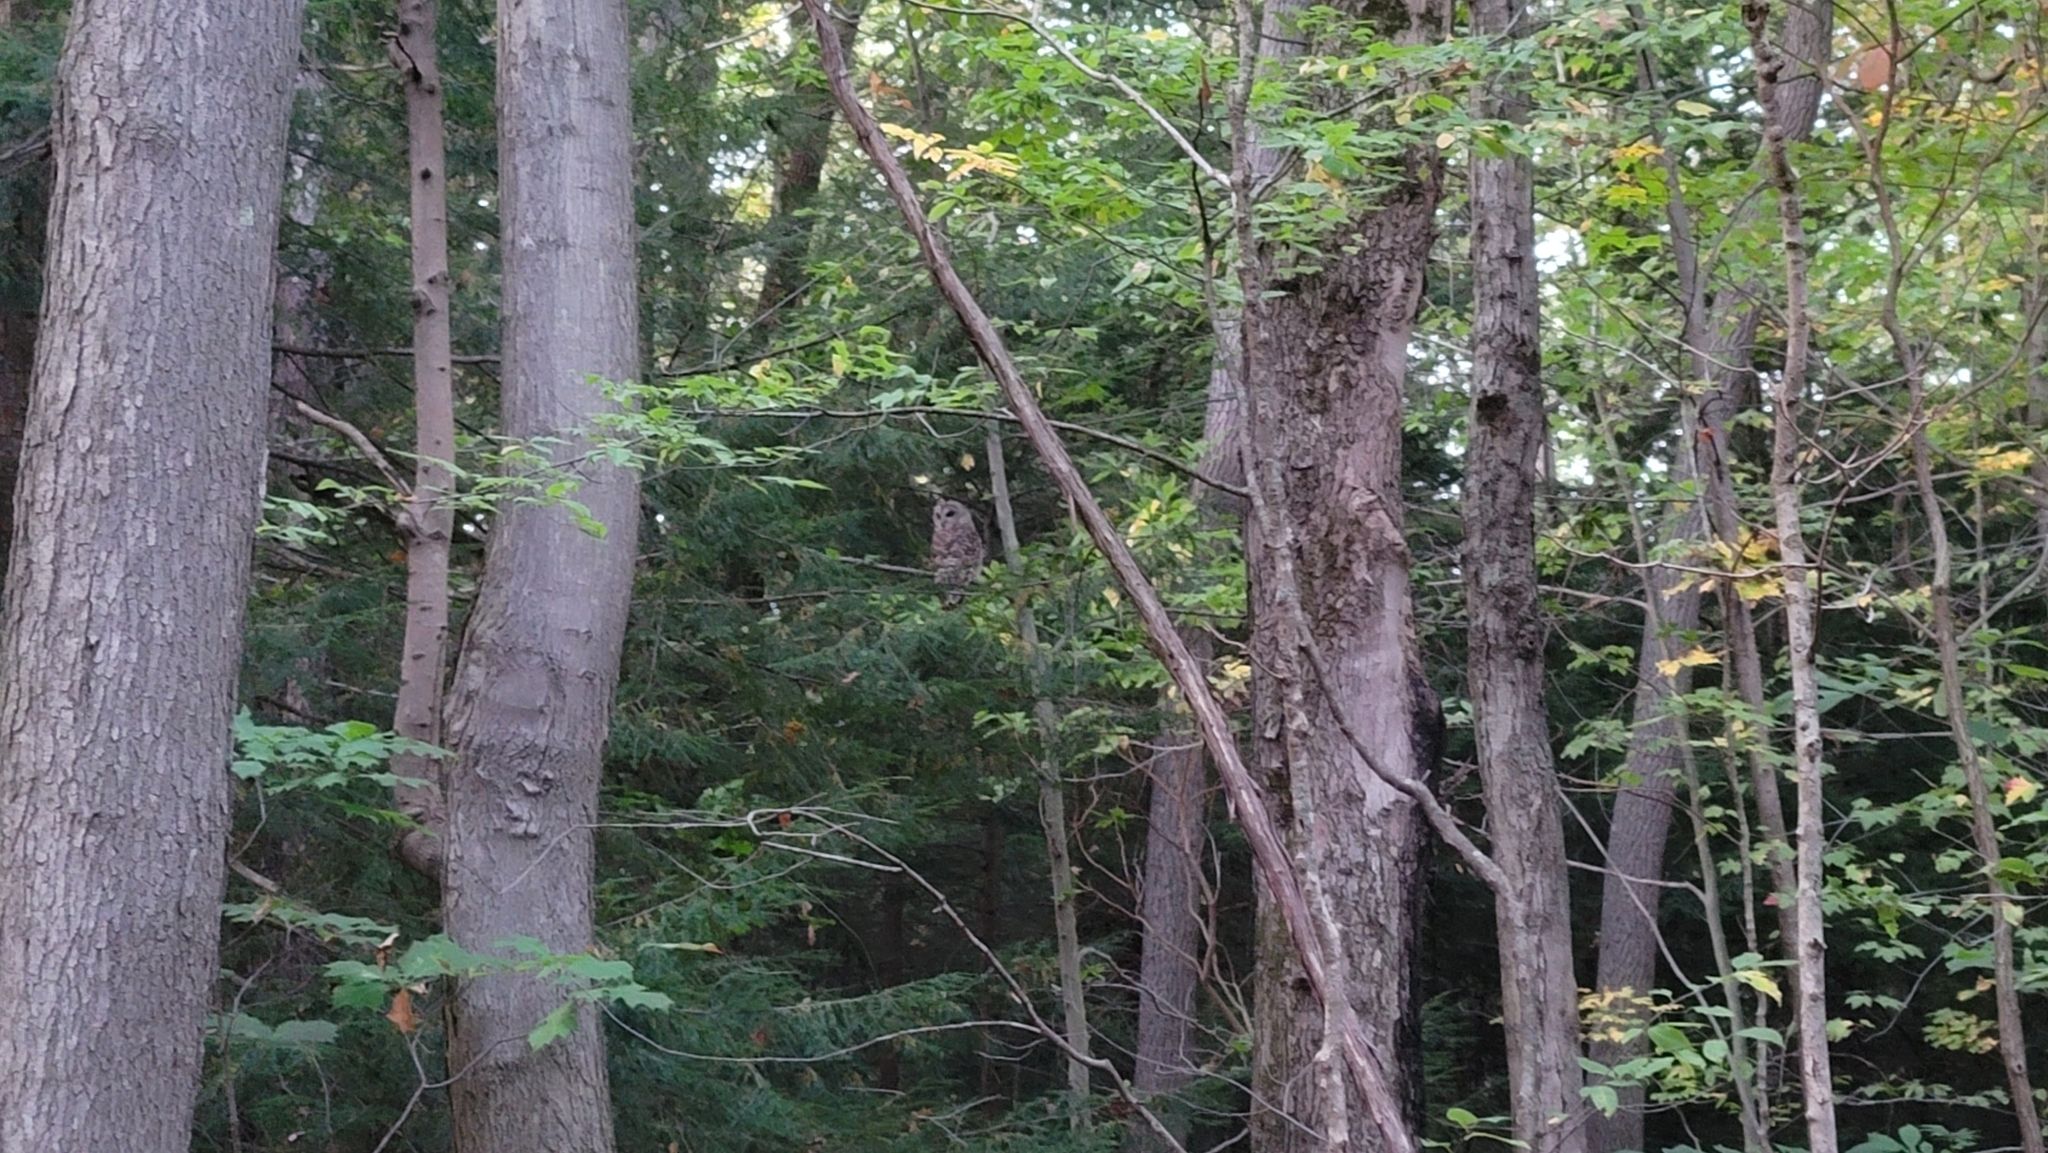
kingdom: Animalia
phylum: Chordata
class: Aves
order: Strigiformes
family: Strigidae
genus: Strix
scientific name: Strix varia
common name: Barred owl
